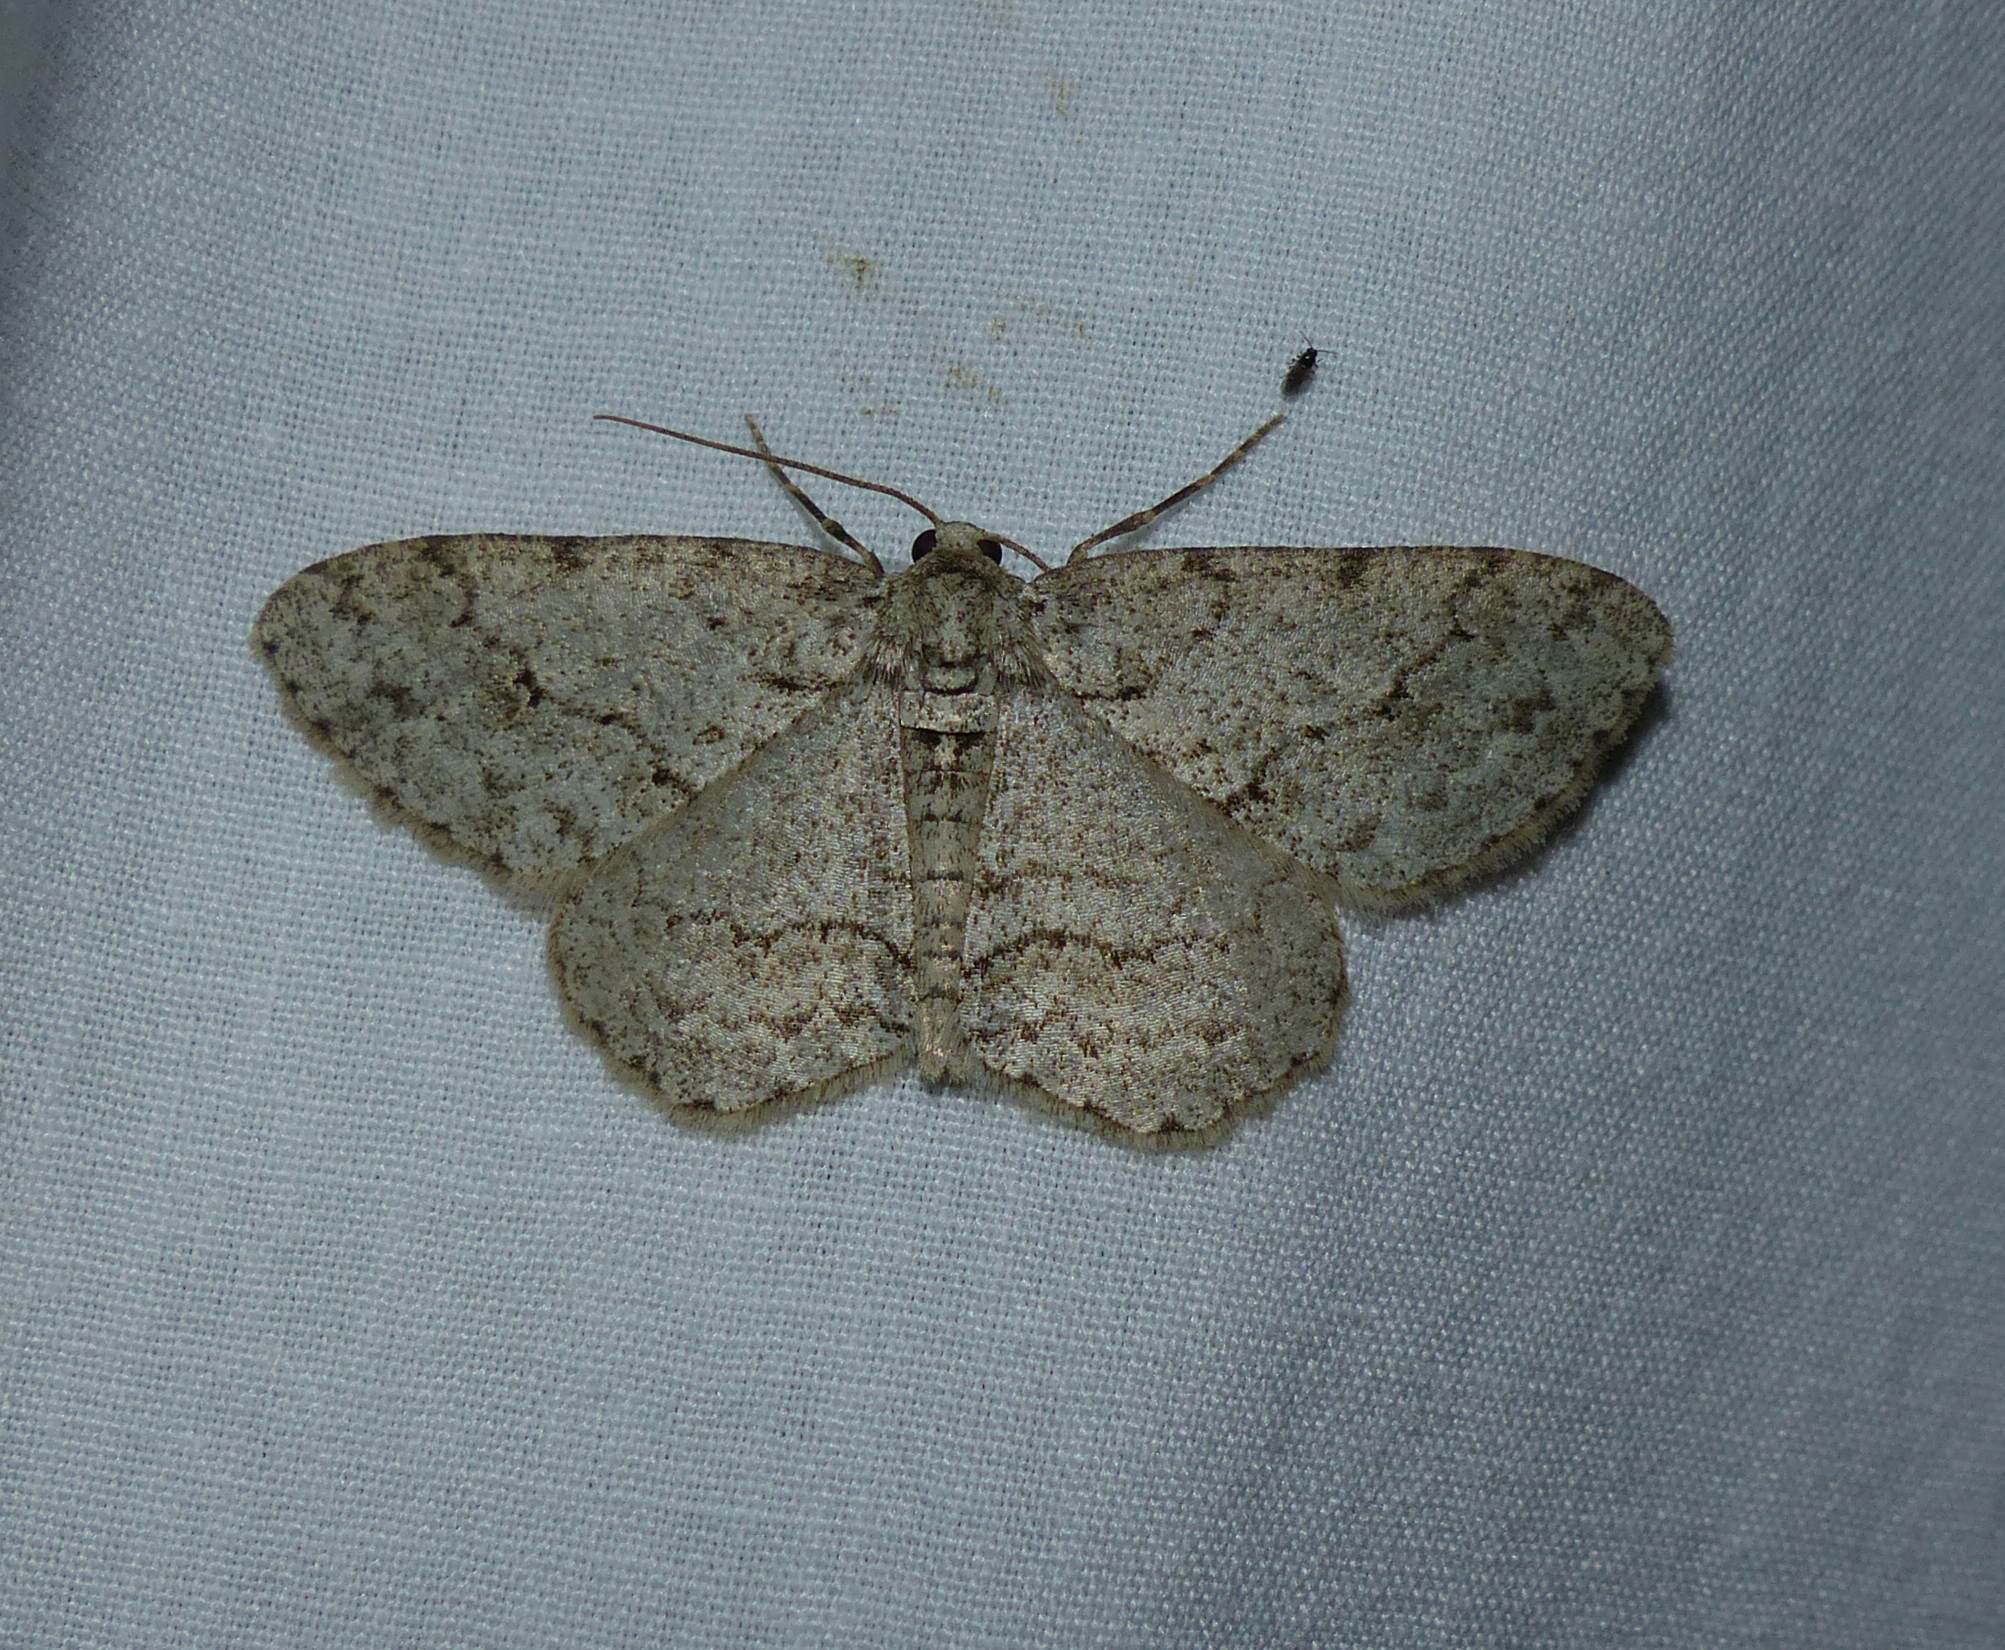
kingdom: Animalia
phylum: Arthropoda
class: Insecta
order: Lepidoptera
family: Geometridae
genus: Ectropis
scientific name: Ectropis crepuscularia
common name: Engrailed
